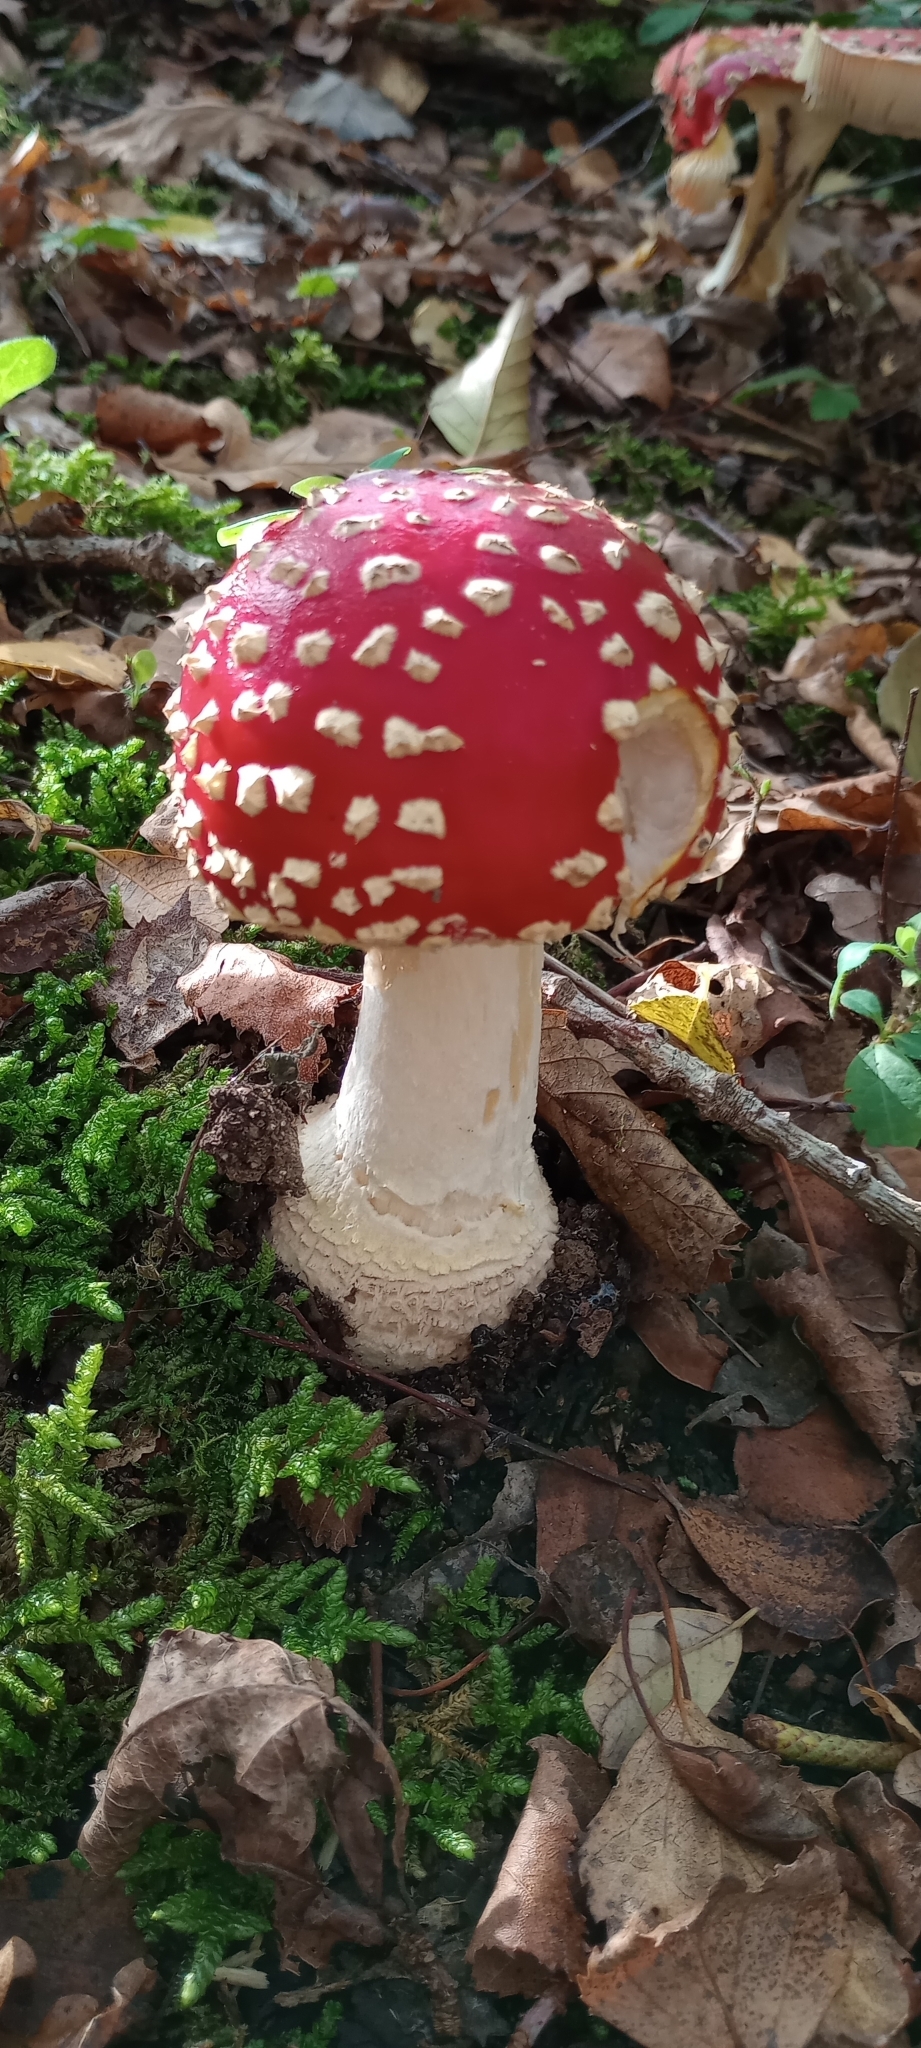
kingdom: Fungi
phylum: Basidiomycota
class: Agaricomycetes
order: Agaricales
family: Amanitaceae
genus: Amanita
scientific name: Amanita muscaria
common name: Fly agaric
